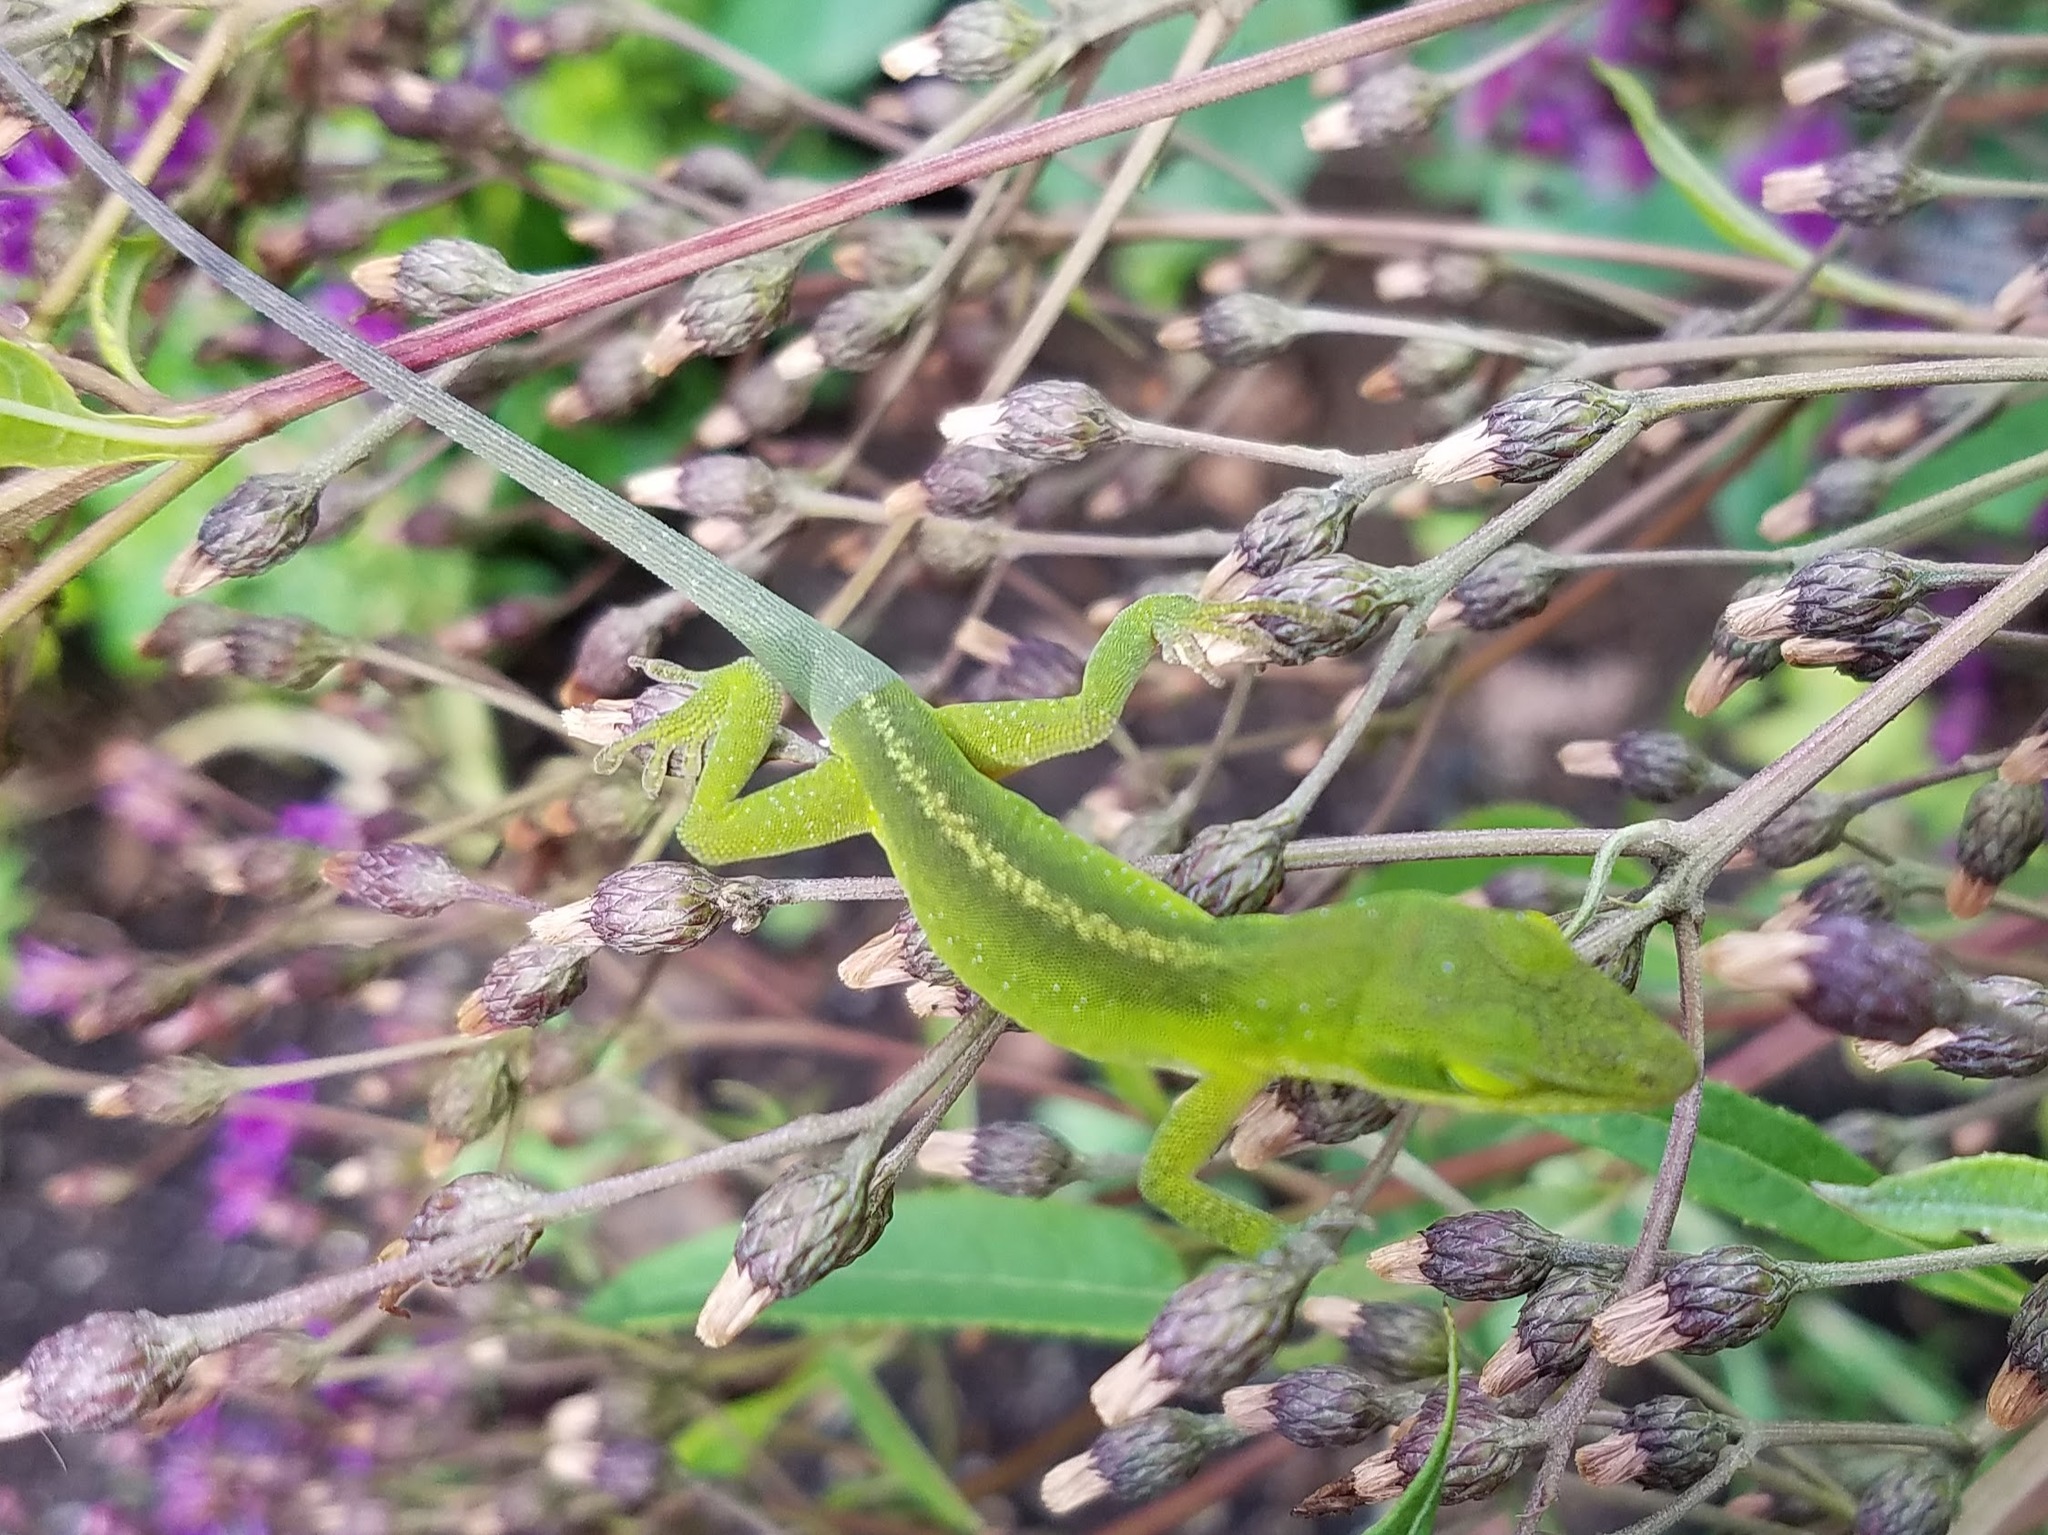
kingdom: Animalia
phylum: Chordata
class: Squamata
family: Dactyloidae
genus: Anolis
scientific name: Anolis carolinensis
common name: Green anole
